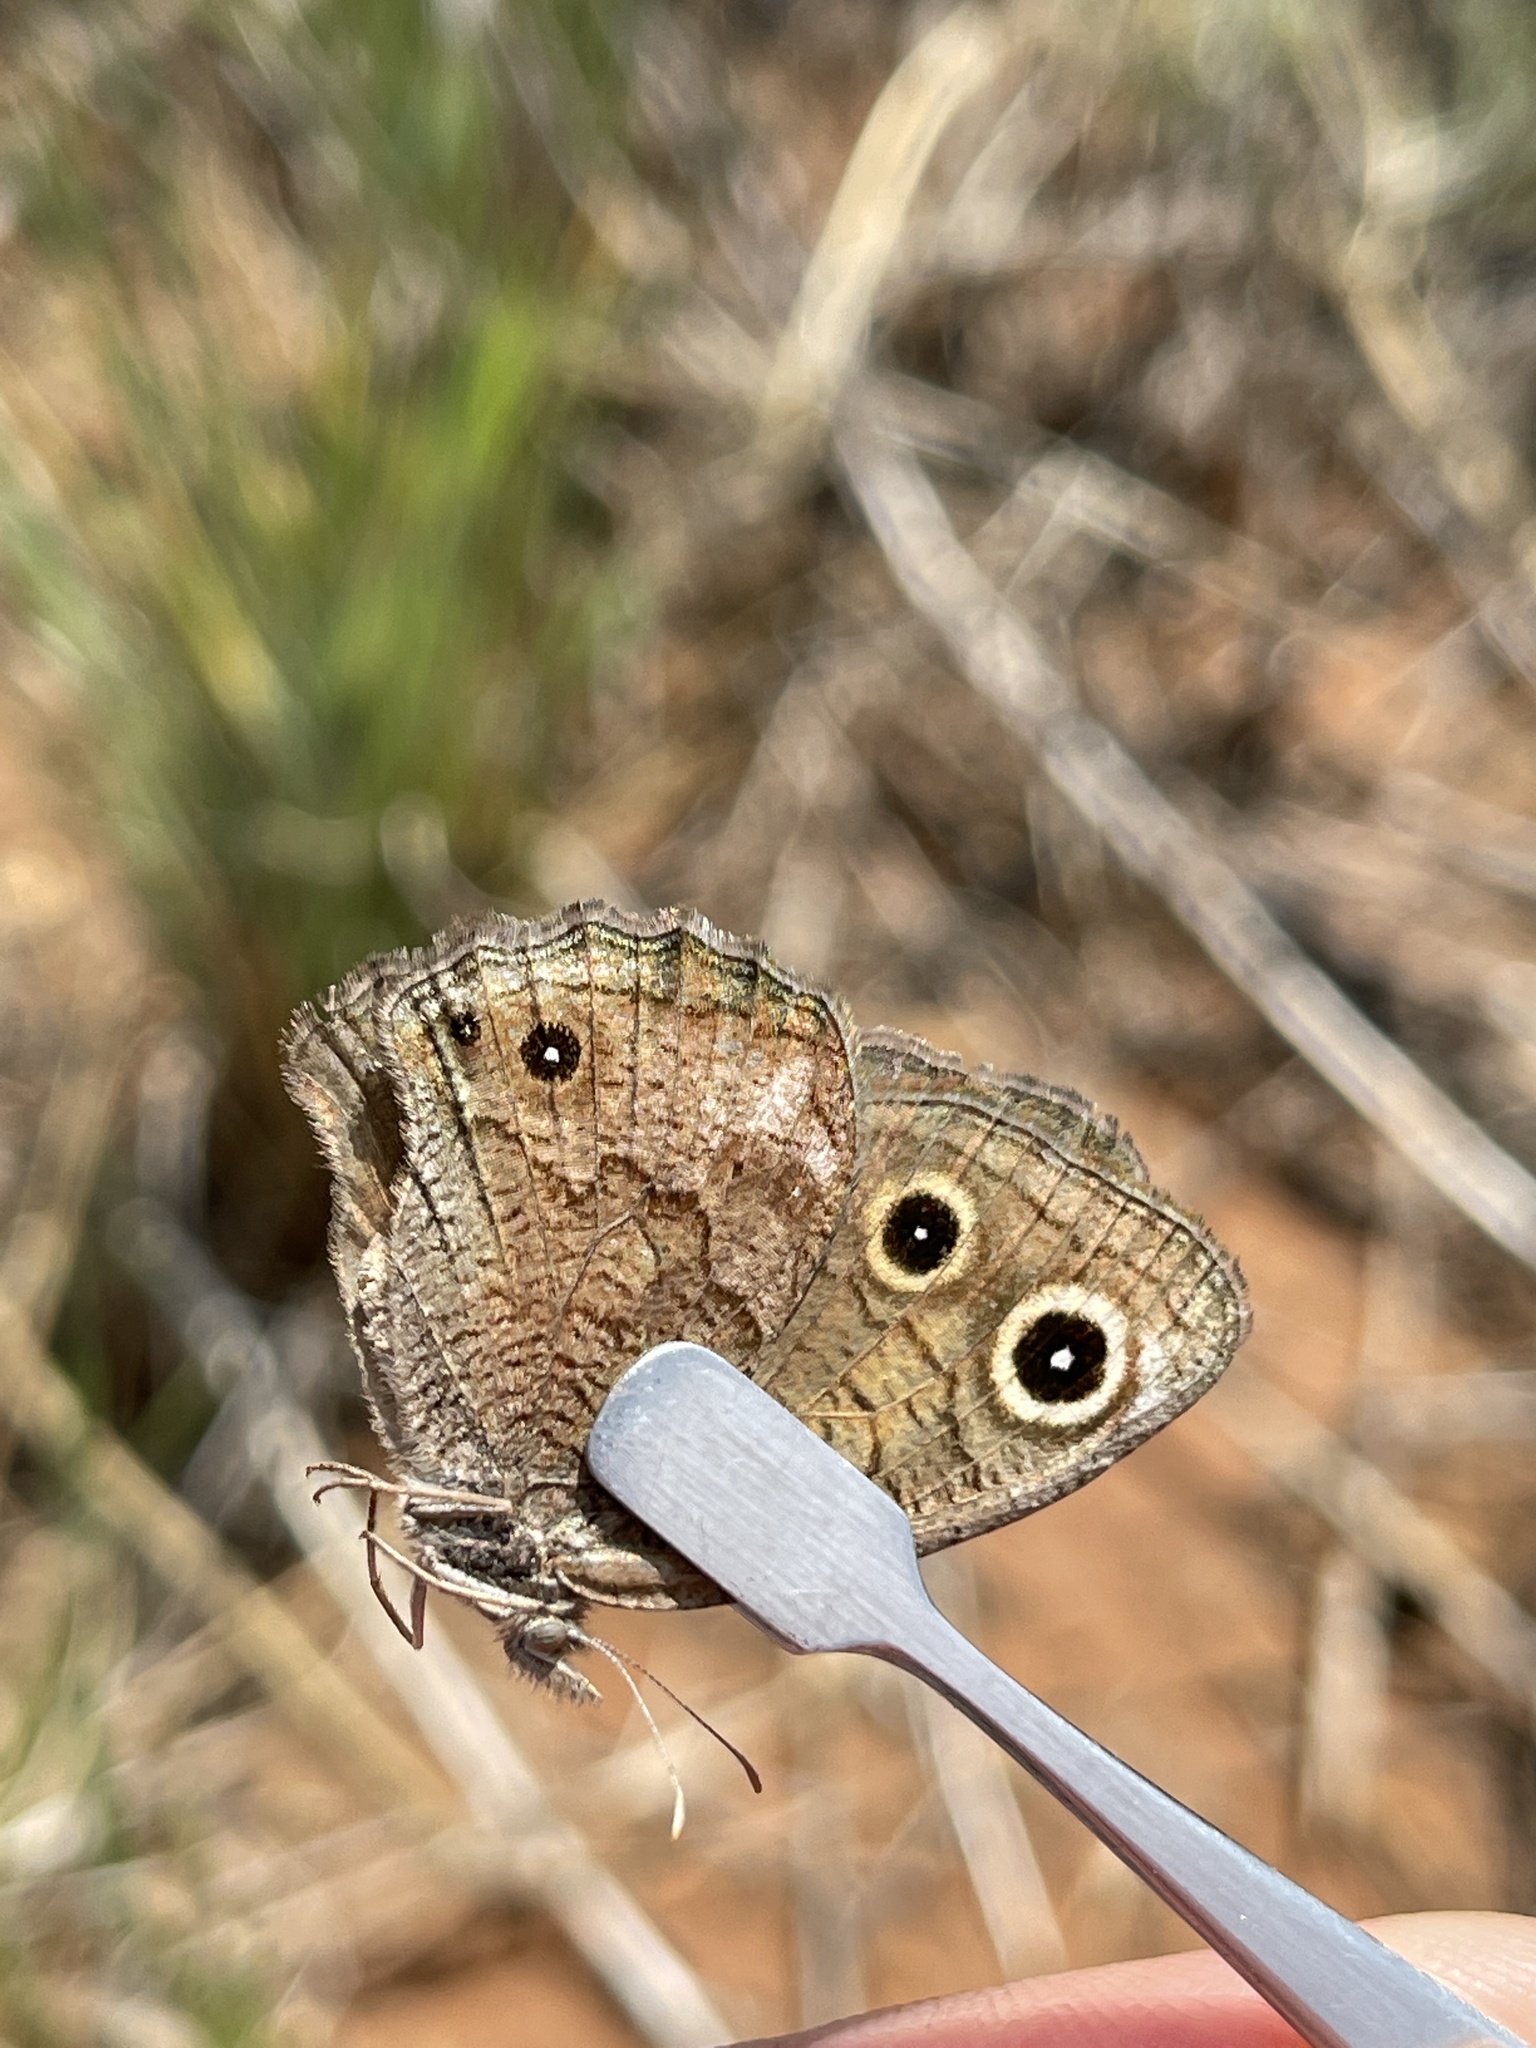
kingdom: Animalia
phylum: Arthropoda
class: Insecta
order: Lepidoptera
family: Nymphalidae
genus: Cercyonis
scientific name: Cercyonis sthenele
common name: Great basin wood-nymph
